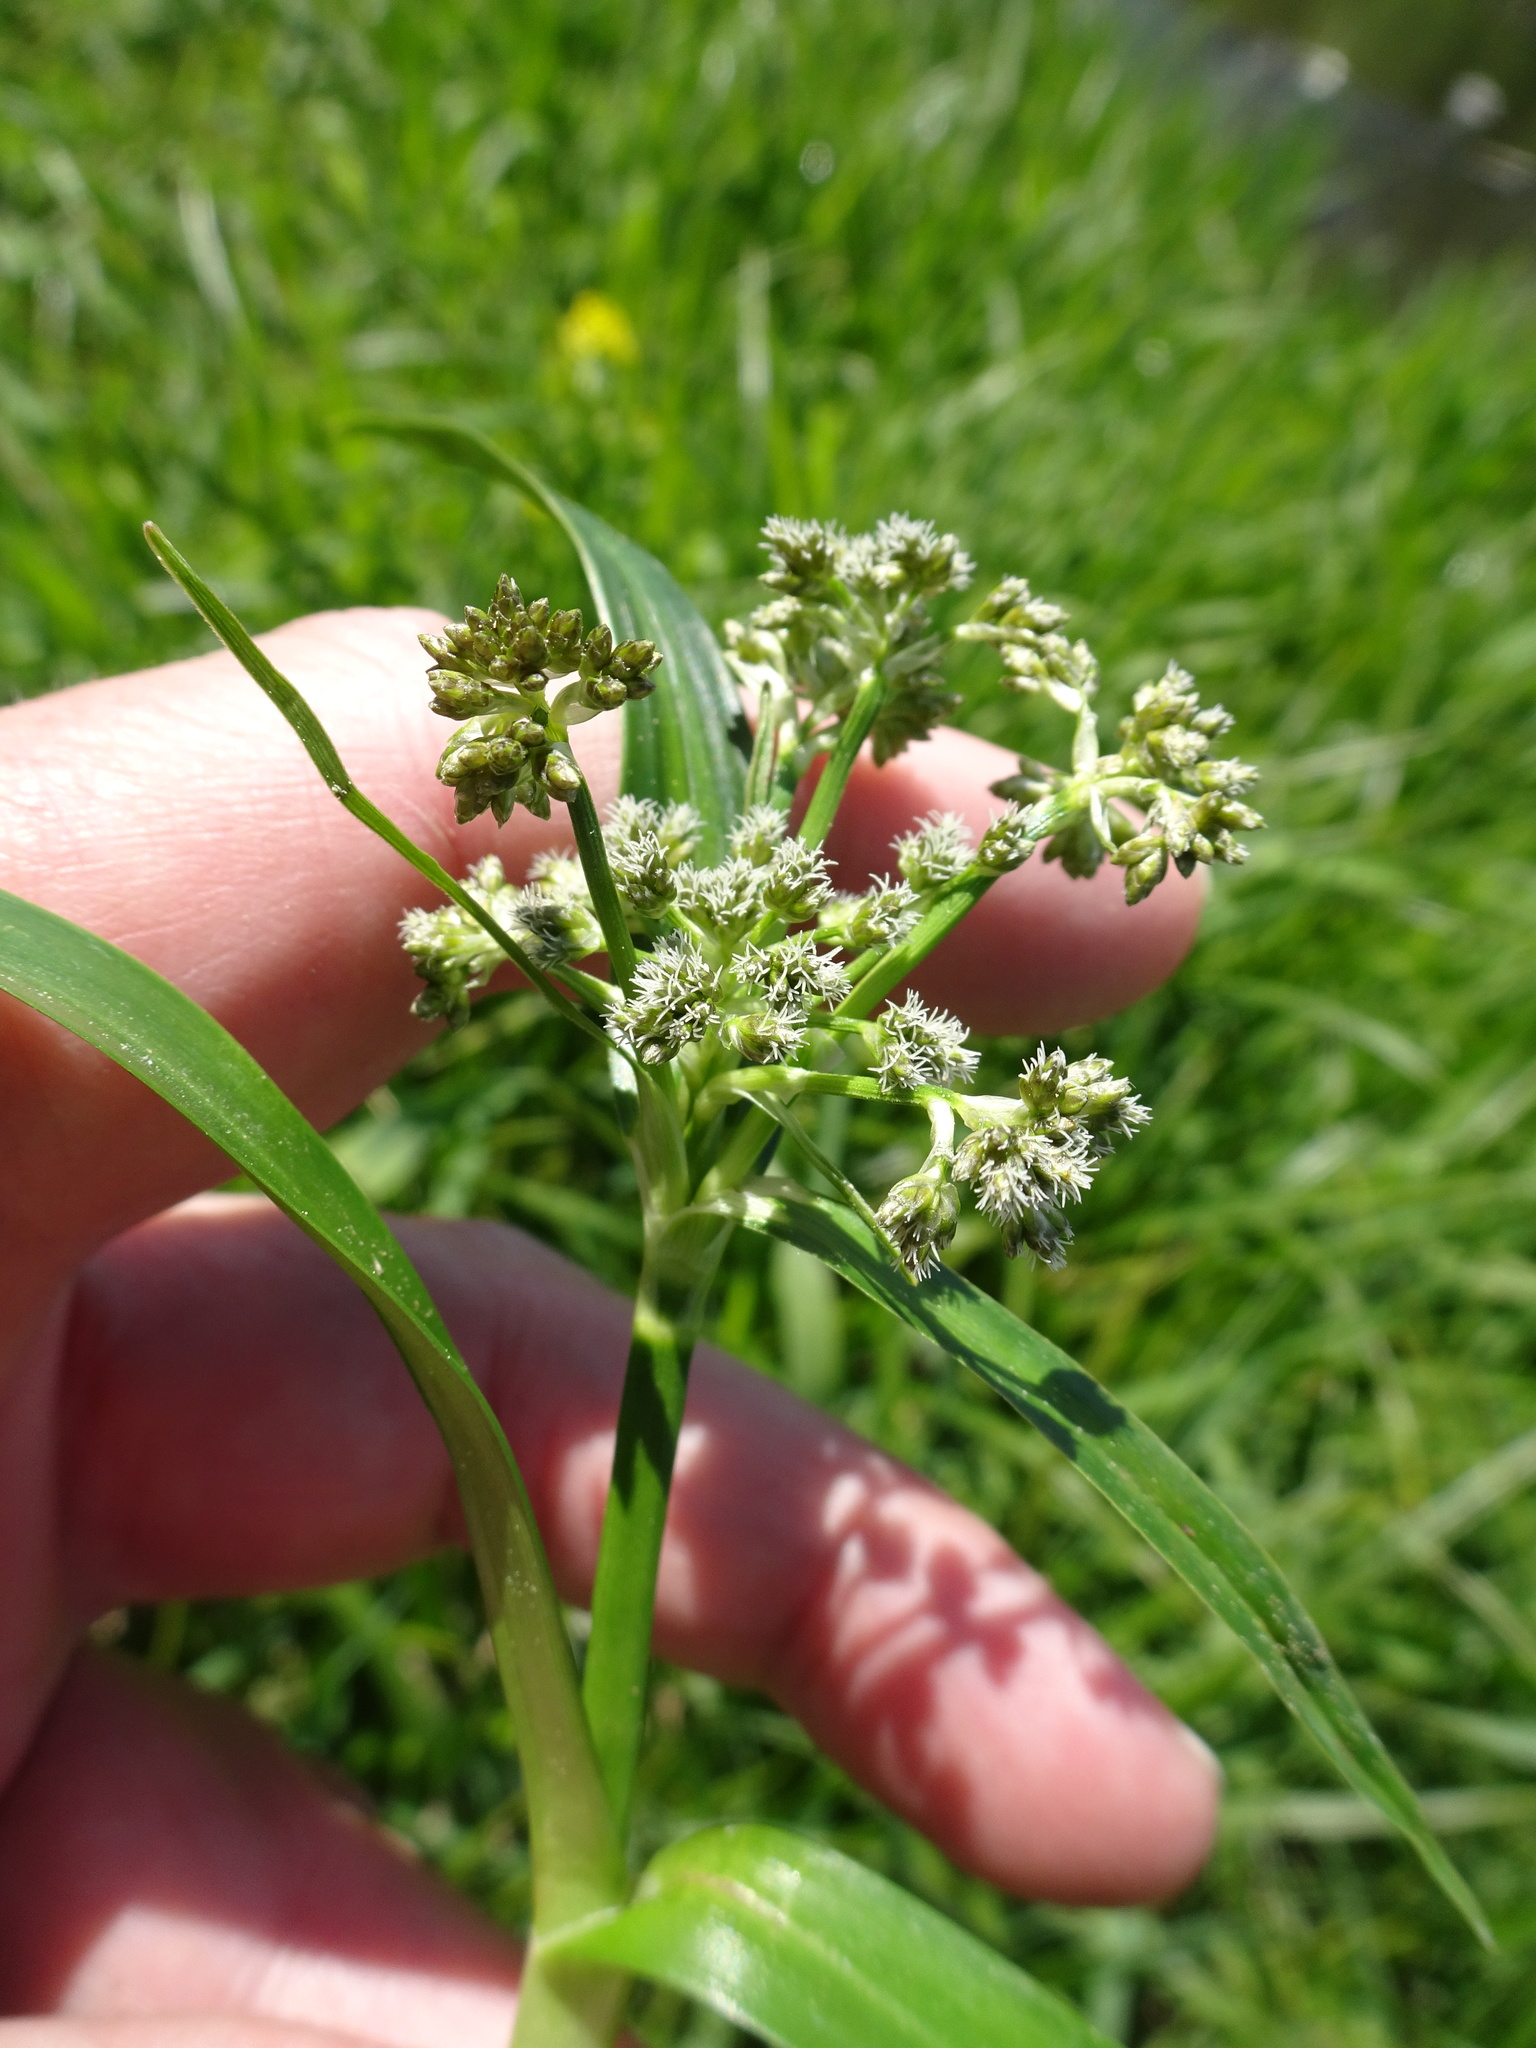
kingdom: Plantae
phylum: Tracheophyta
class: Liliopsida
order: Poales
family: Cyperaceae
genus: Scirpus
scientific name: Scirpus sylvaticus
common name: Wood club-rush
